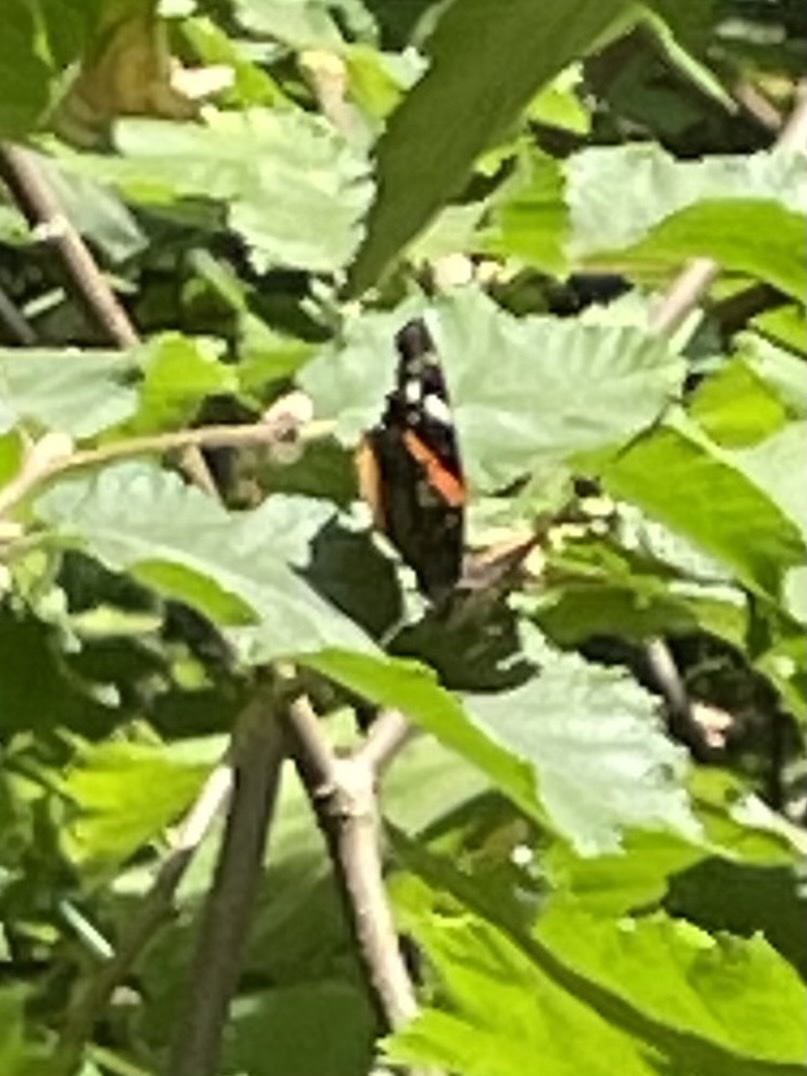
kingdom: Animalia
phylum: Arthropoda
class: Insecta
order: Lepidoptera
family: Nymphalidae
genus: Vanessa
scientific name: Vanessa atalanta
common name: Red admiral
